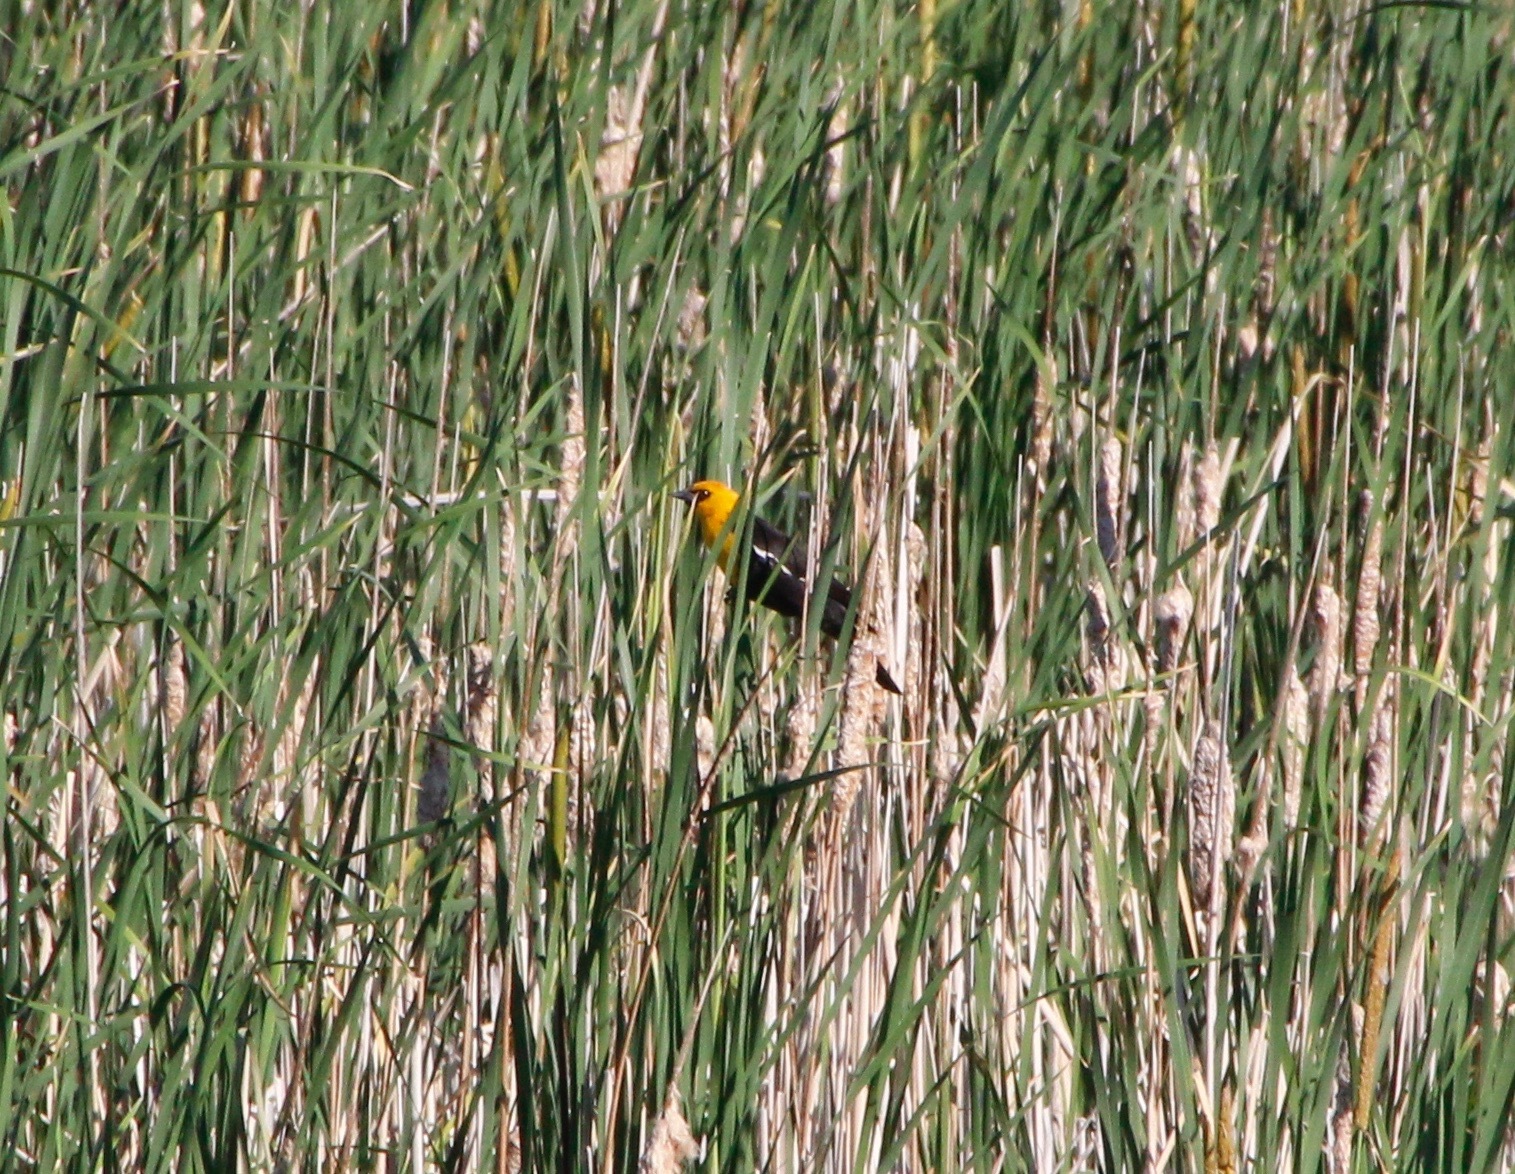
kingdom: Animalia
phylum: Chordata
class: Aves
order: Passeriformes
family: Icteridae
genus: Xanthocephalus
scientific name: Xanthocephalus xanthocephalus
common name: Yellow-headed blackbird
